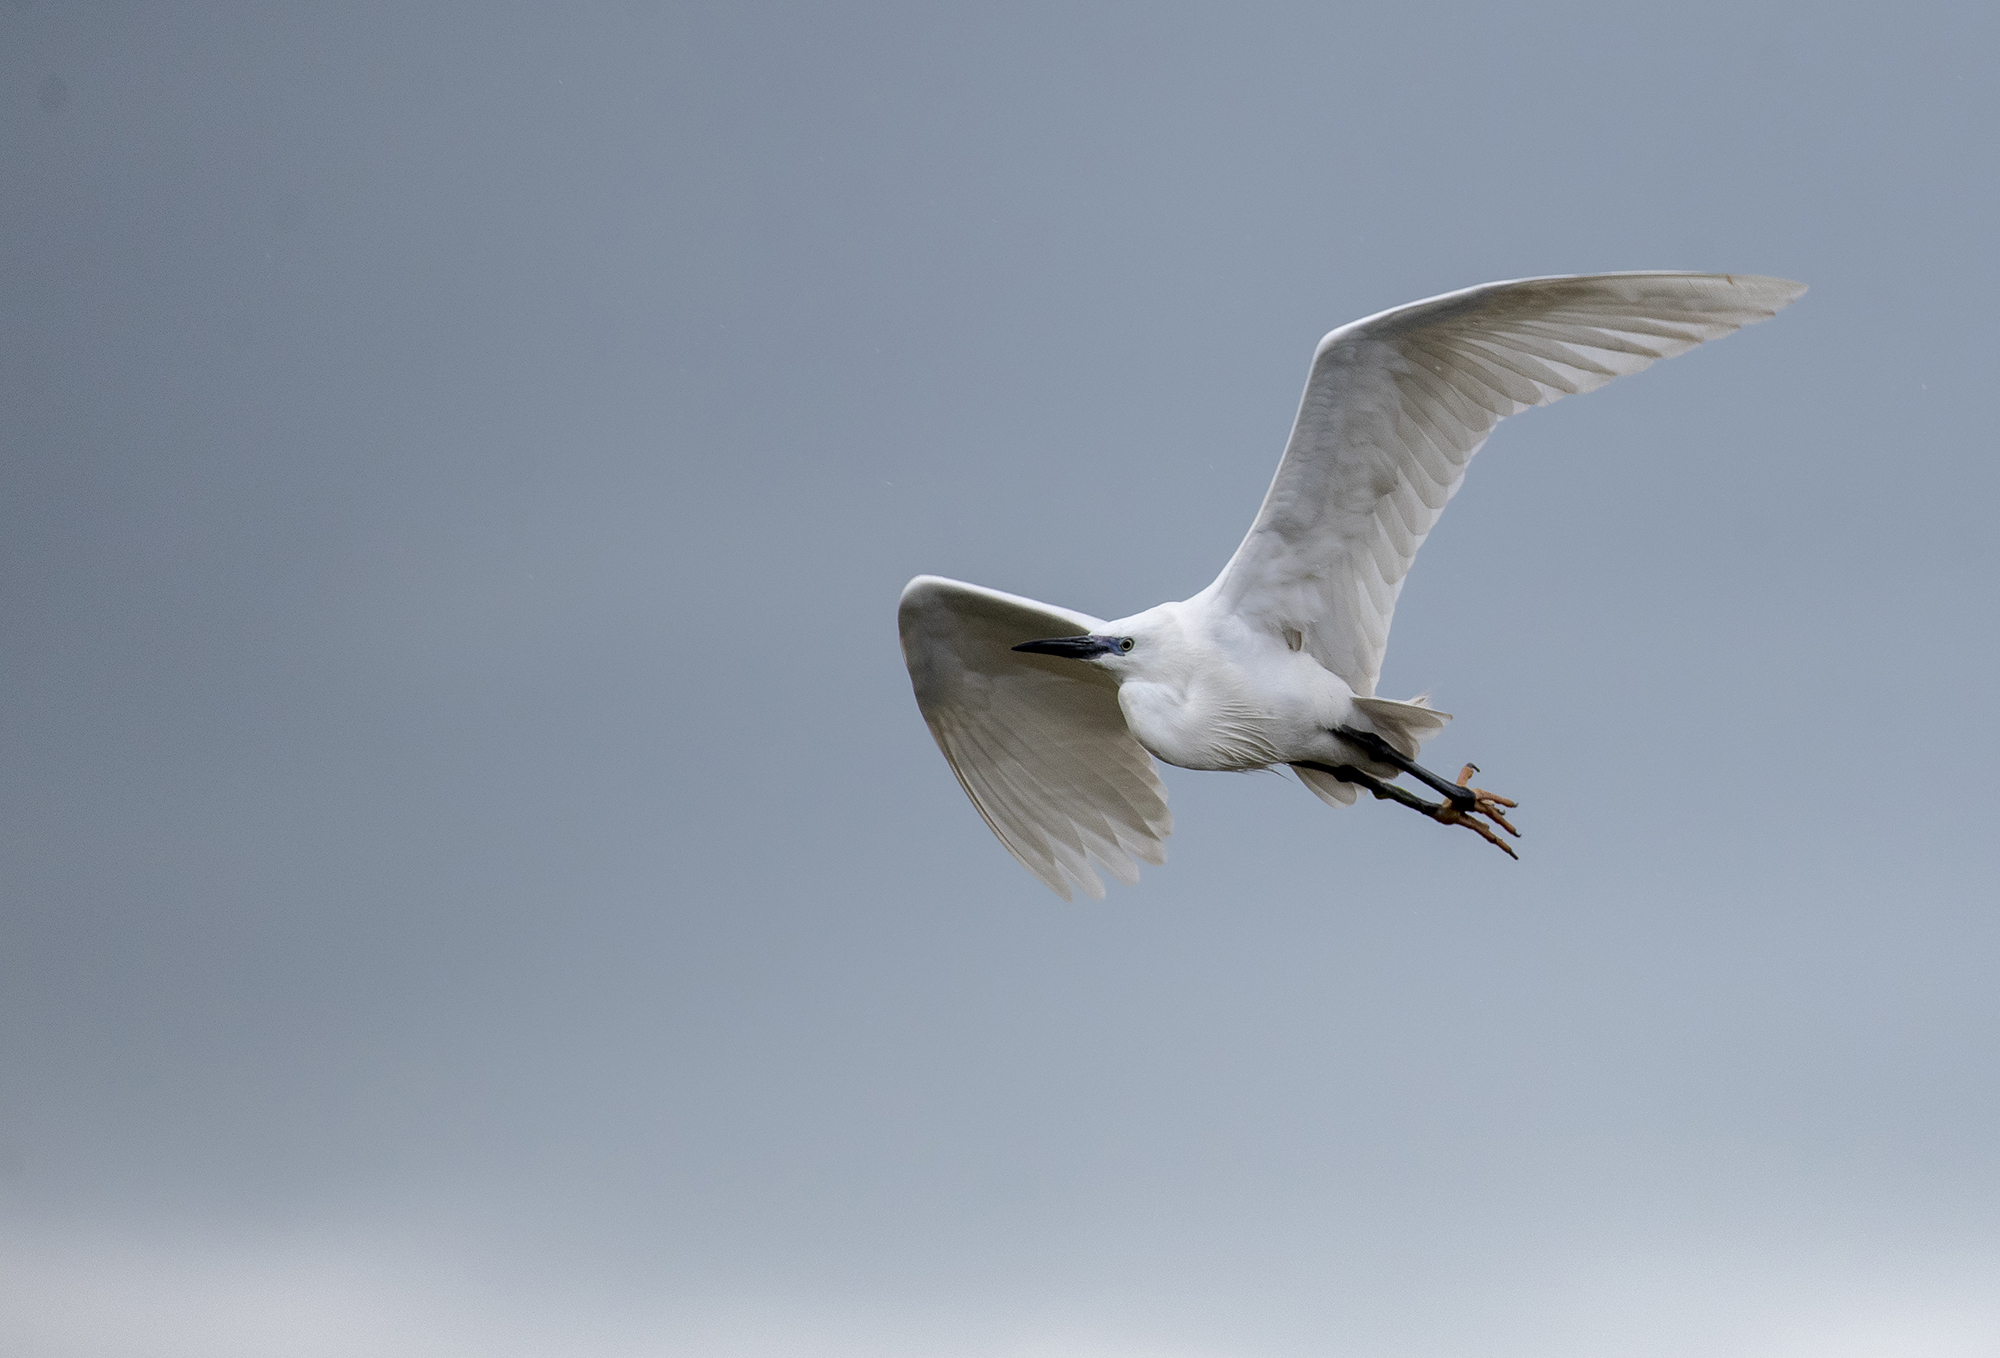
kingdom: Animalia
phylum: Chordata
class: Aves
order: Pelecaniformes
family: Ardeidae
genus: Egretta
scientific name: Egretta garzetta
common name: Little egret
